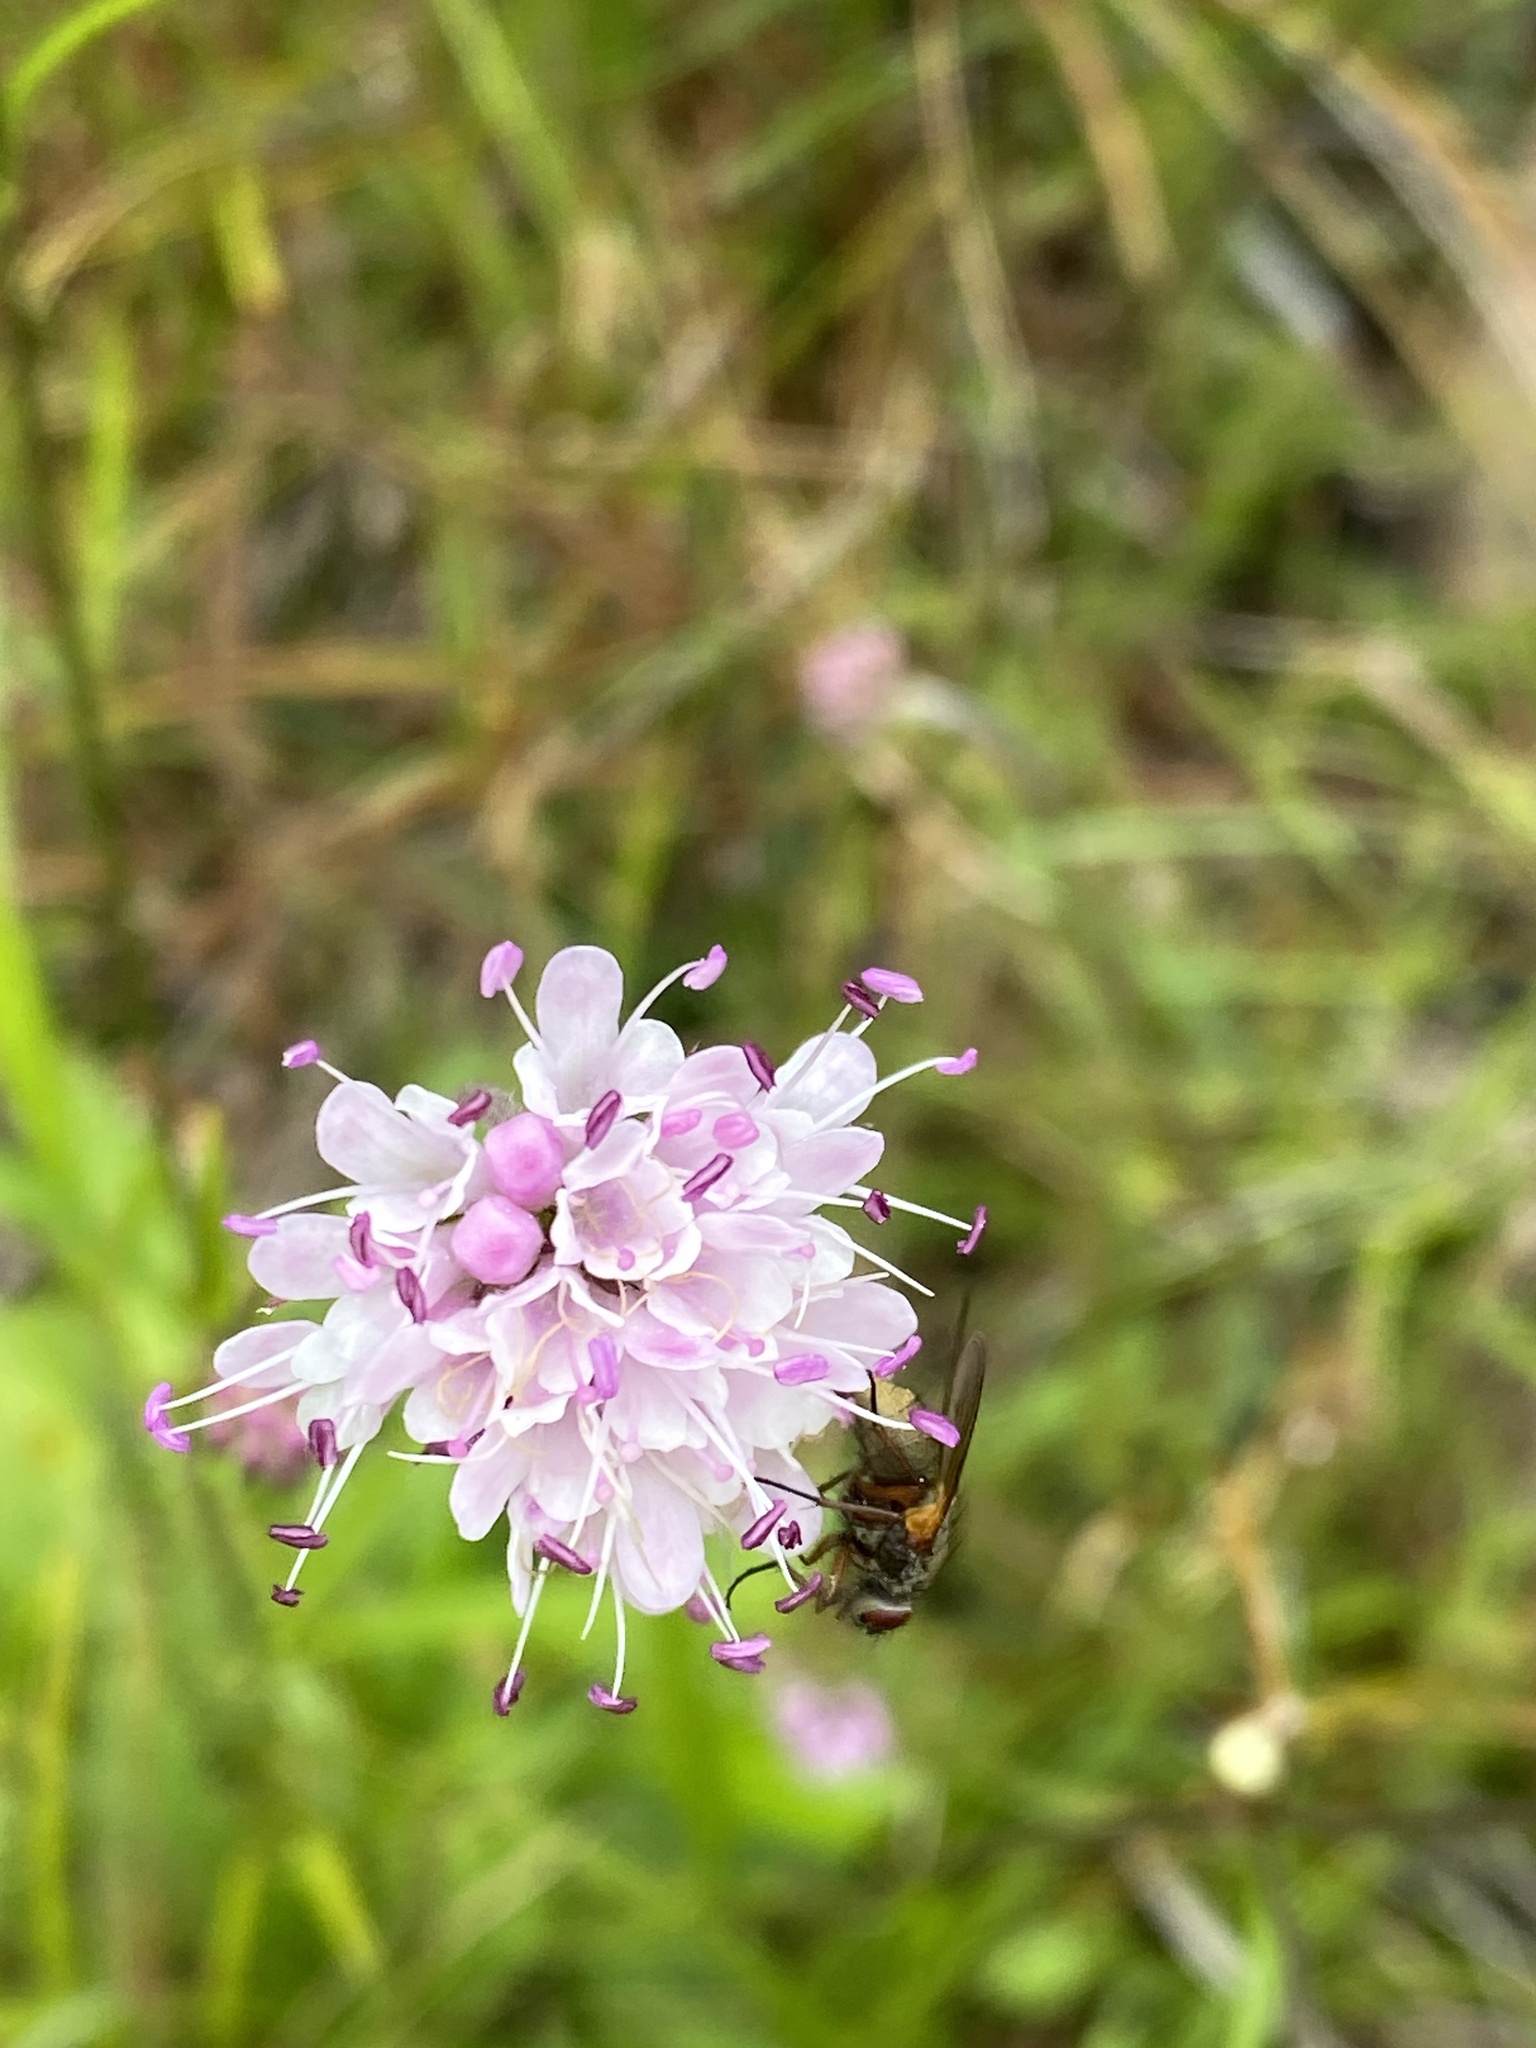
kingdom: Plantae
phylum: Tracheophyta
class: Magnoliopsida
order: Dipsacales
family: Caprifoliaceae
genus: Succisa
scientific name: Succisa pratensis
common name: Devil's-bit
